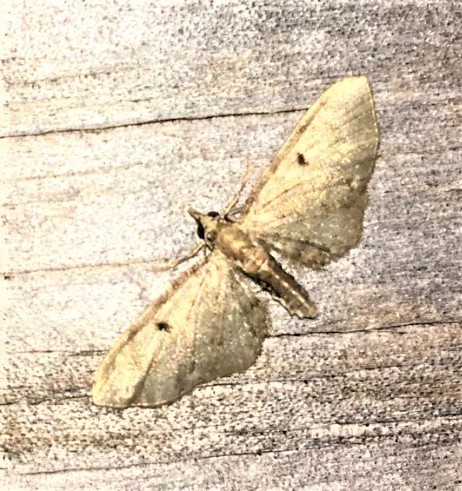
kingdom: Animalia
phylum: Arthropoda
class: Insecta
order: Lepidoptera
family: Geometridae
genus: Eupithecia
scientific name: Eupithecia miserulata
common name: Common eupithecia
